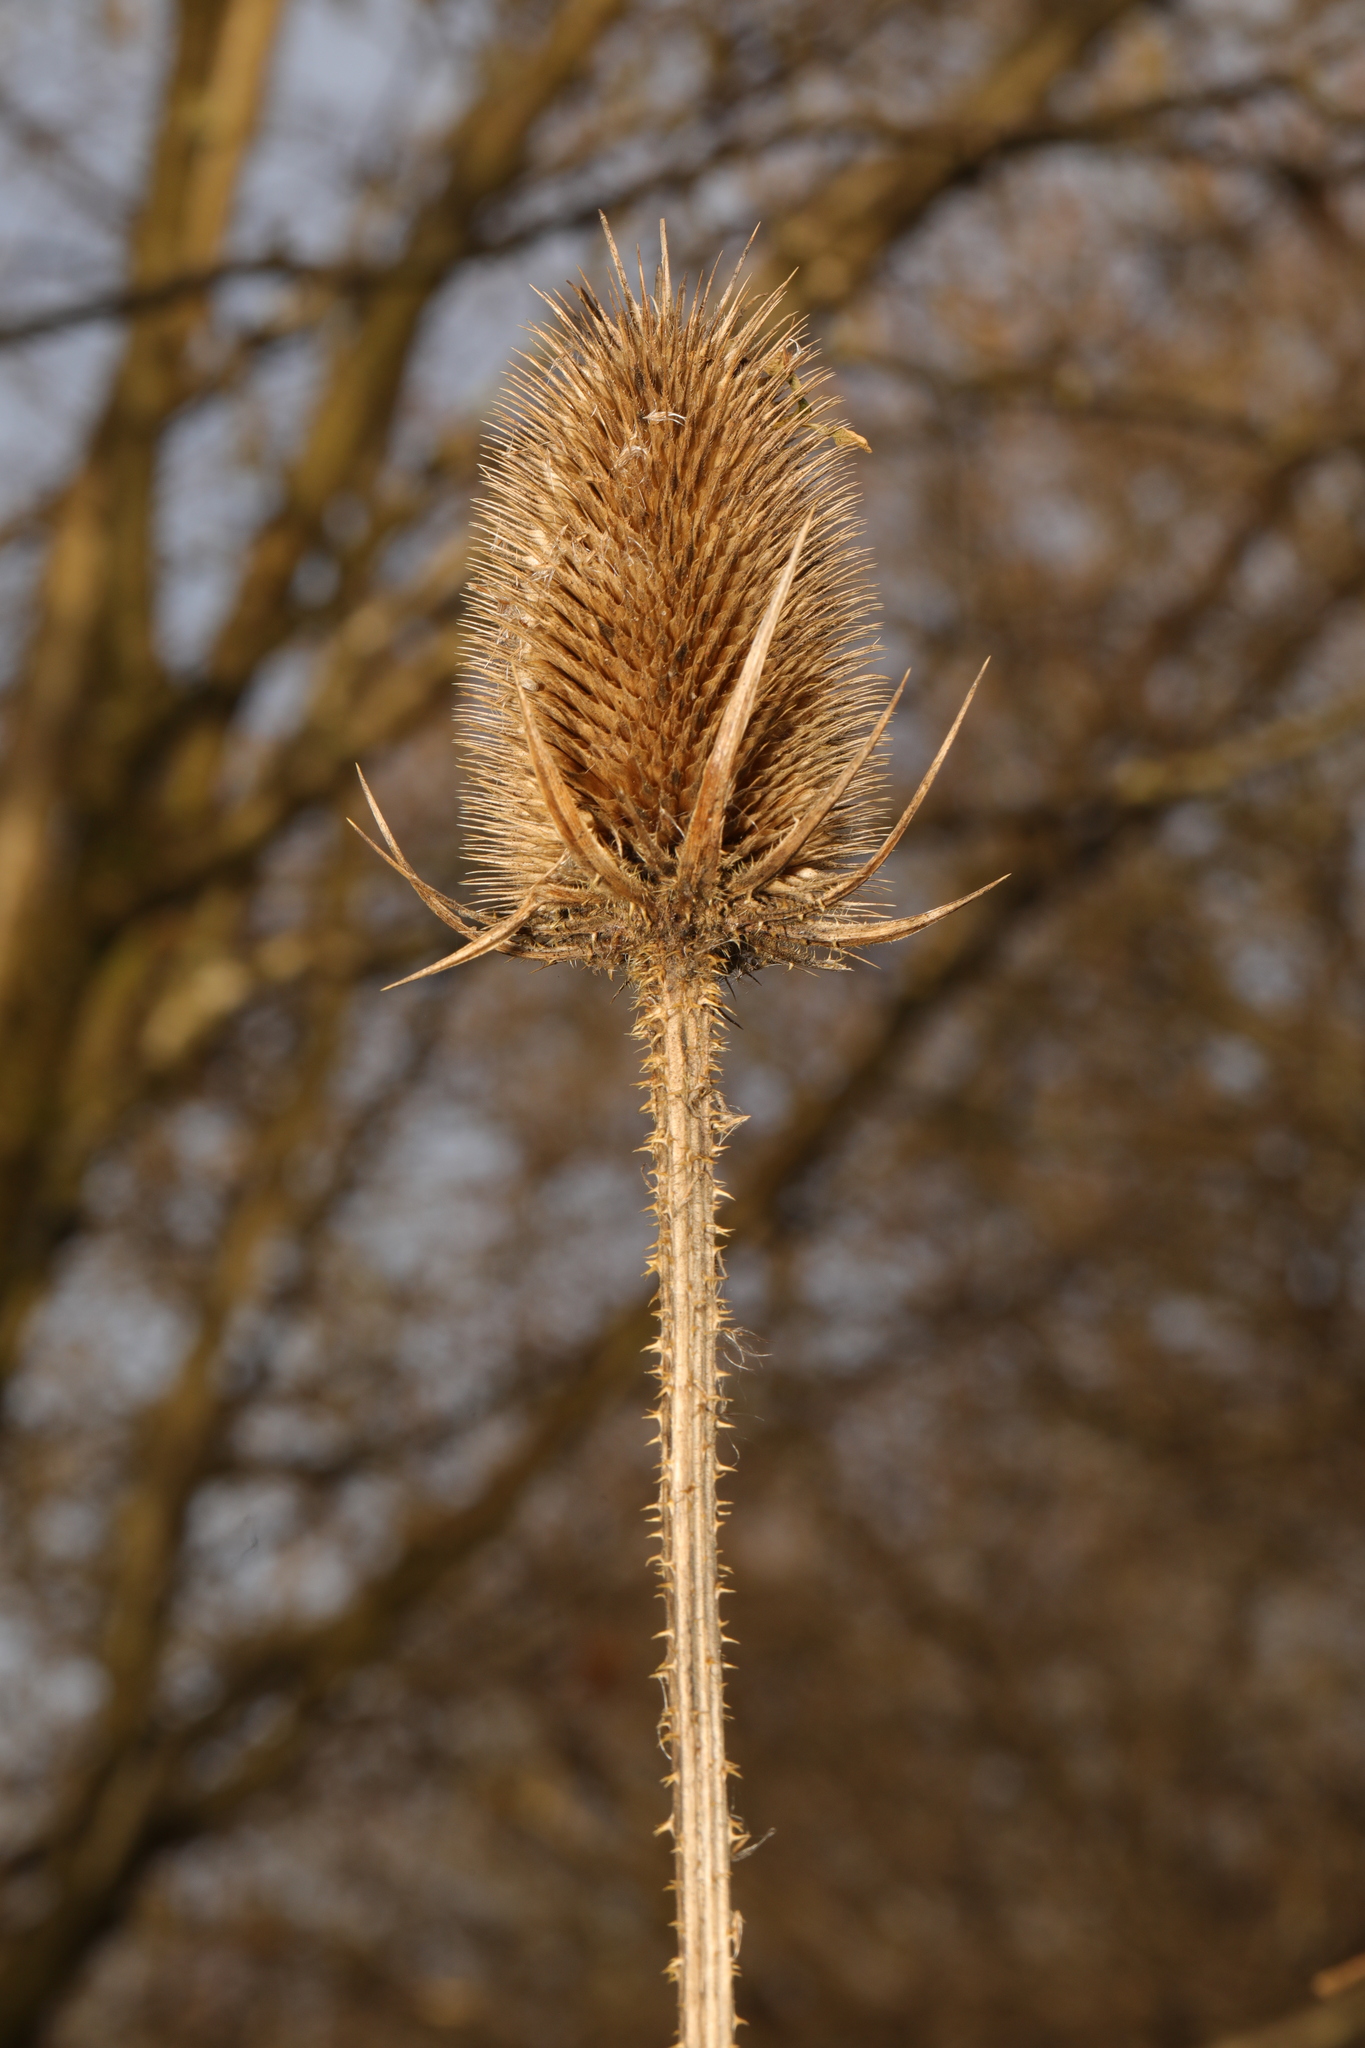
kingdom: Plantae
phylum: Tracheophyta
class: Magnoliopsida
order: Dipsacales
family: Caprifoliaceae
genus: Dipsacus
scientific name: Dipsacus fullonum
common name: Teasel
